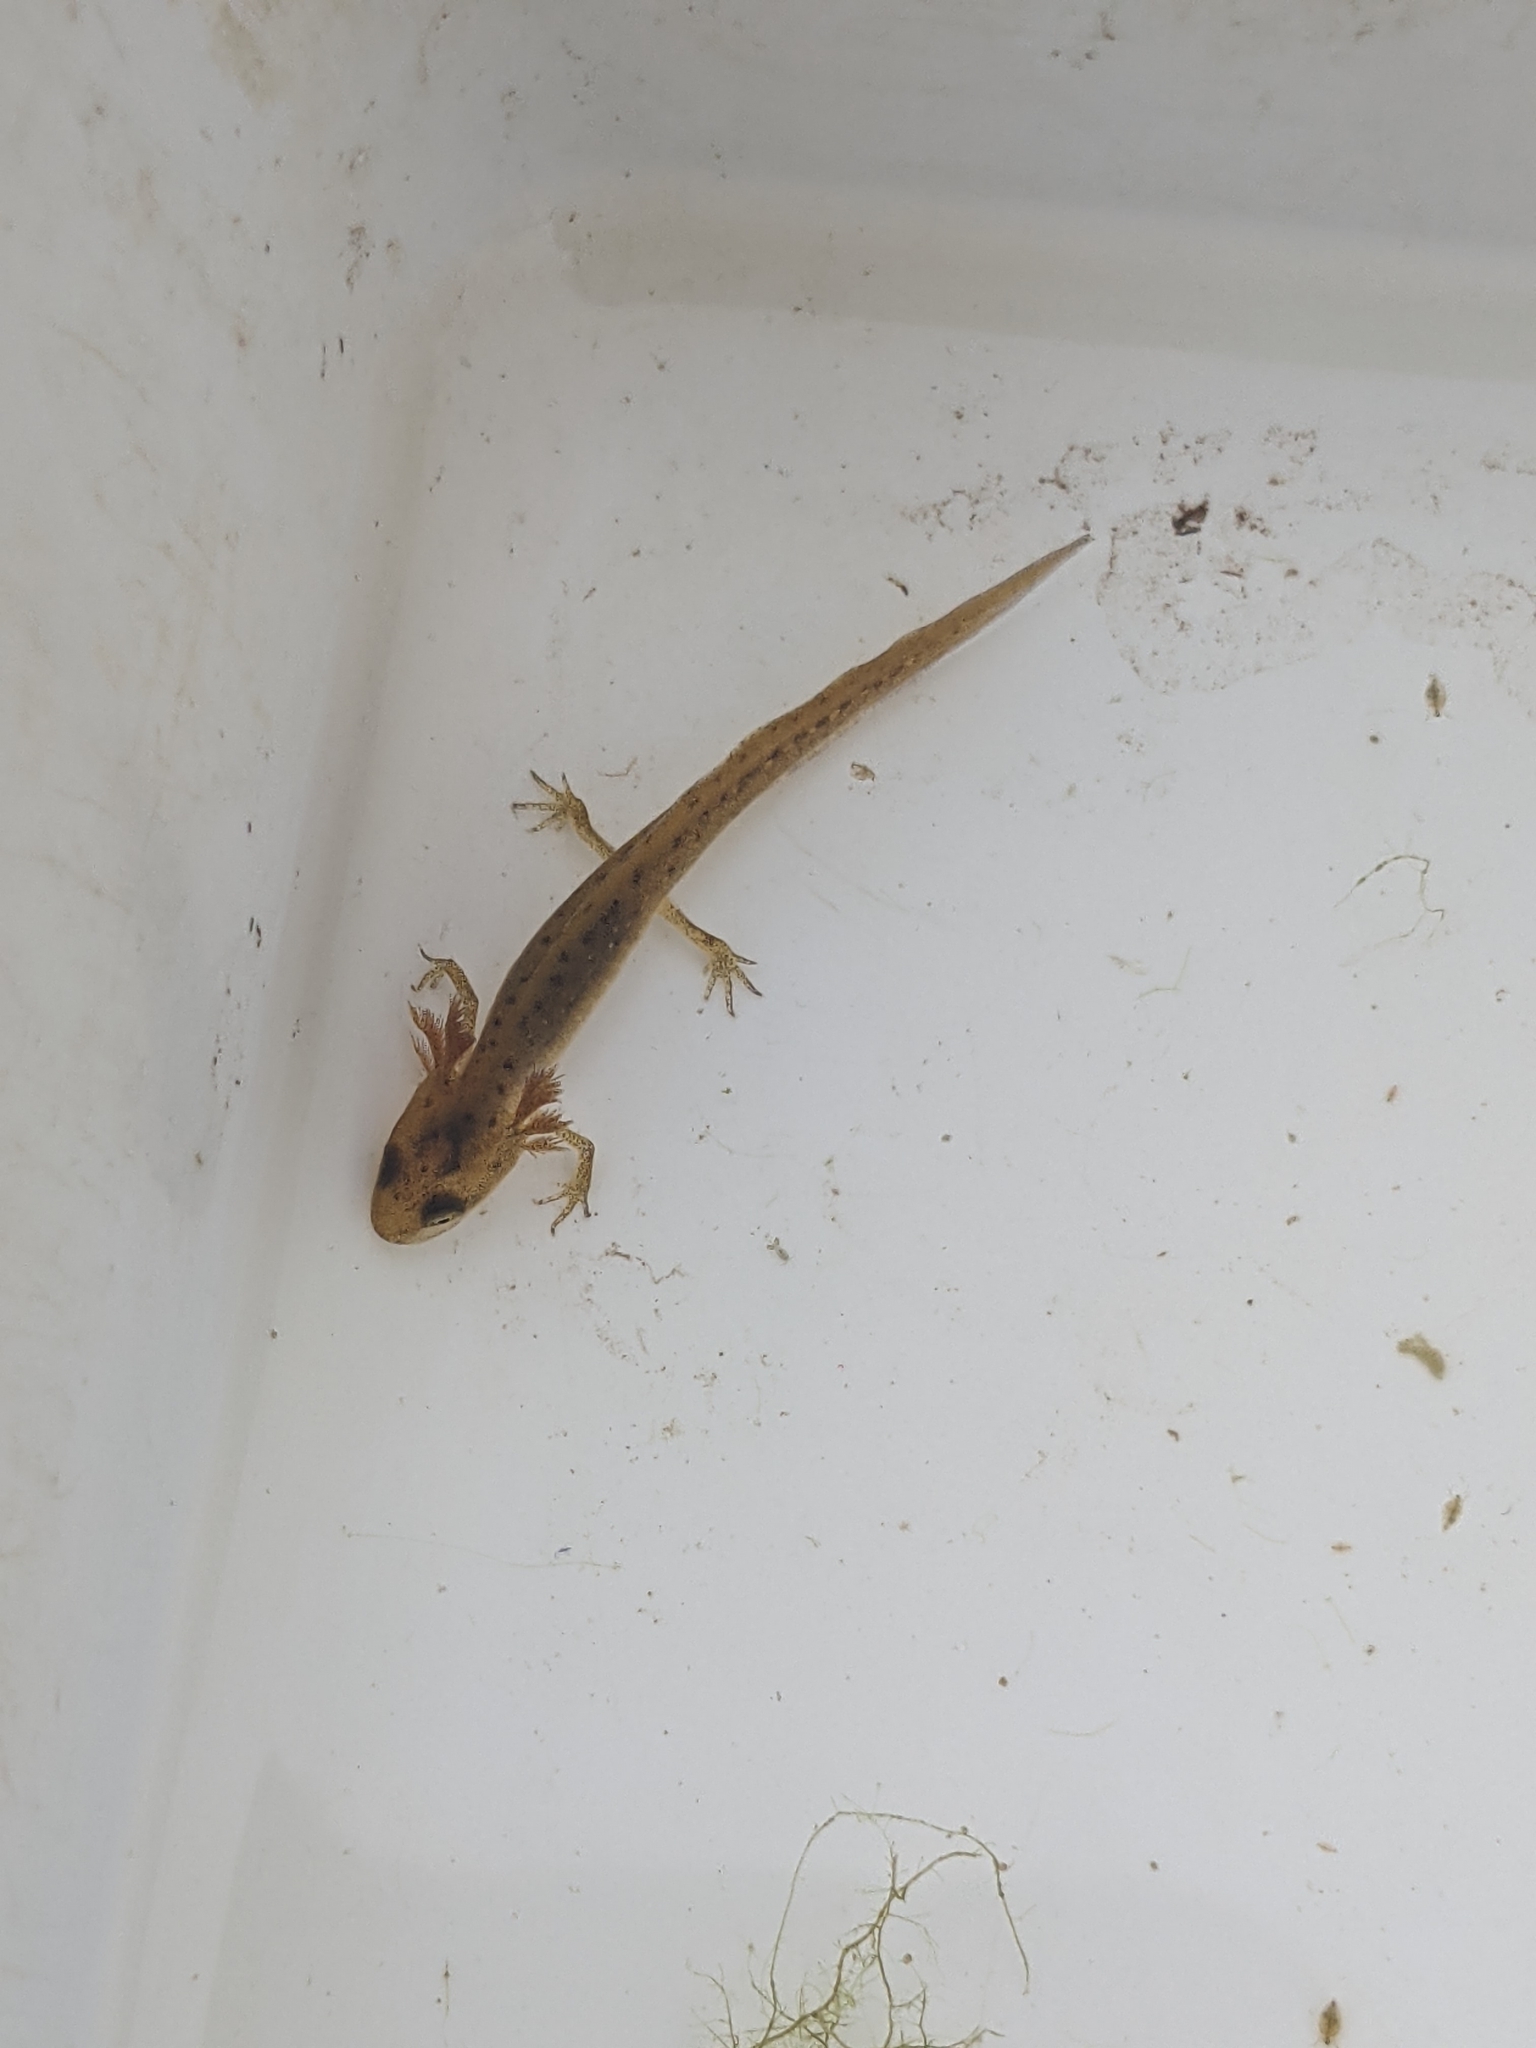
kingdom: Animalia
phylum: Chordata
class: Amphibia
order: Caudata
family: Salamandridae
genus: Lissotriton
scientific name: Lissotriton vulgaris
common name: Smooth newt
